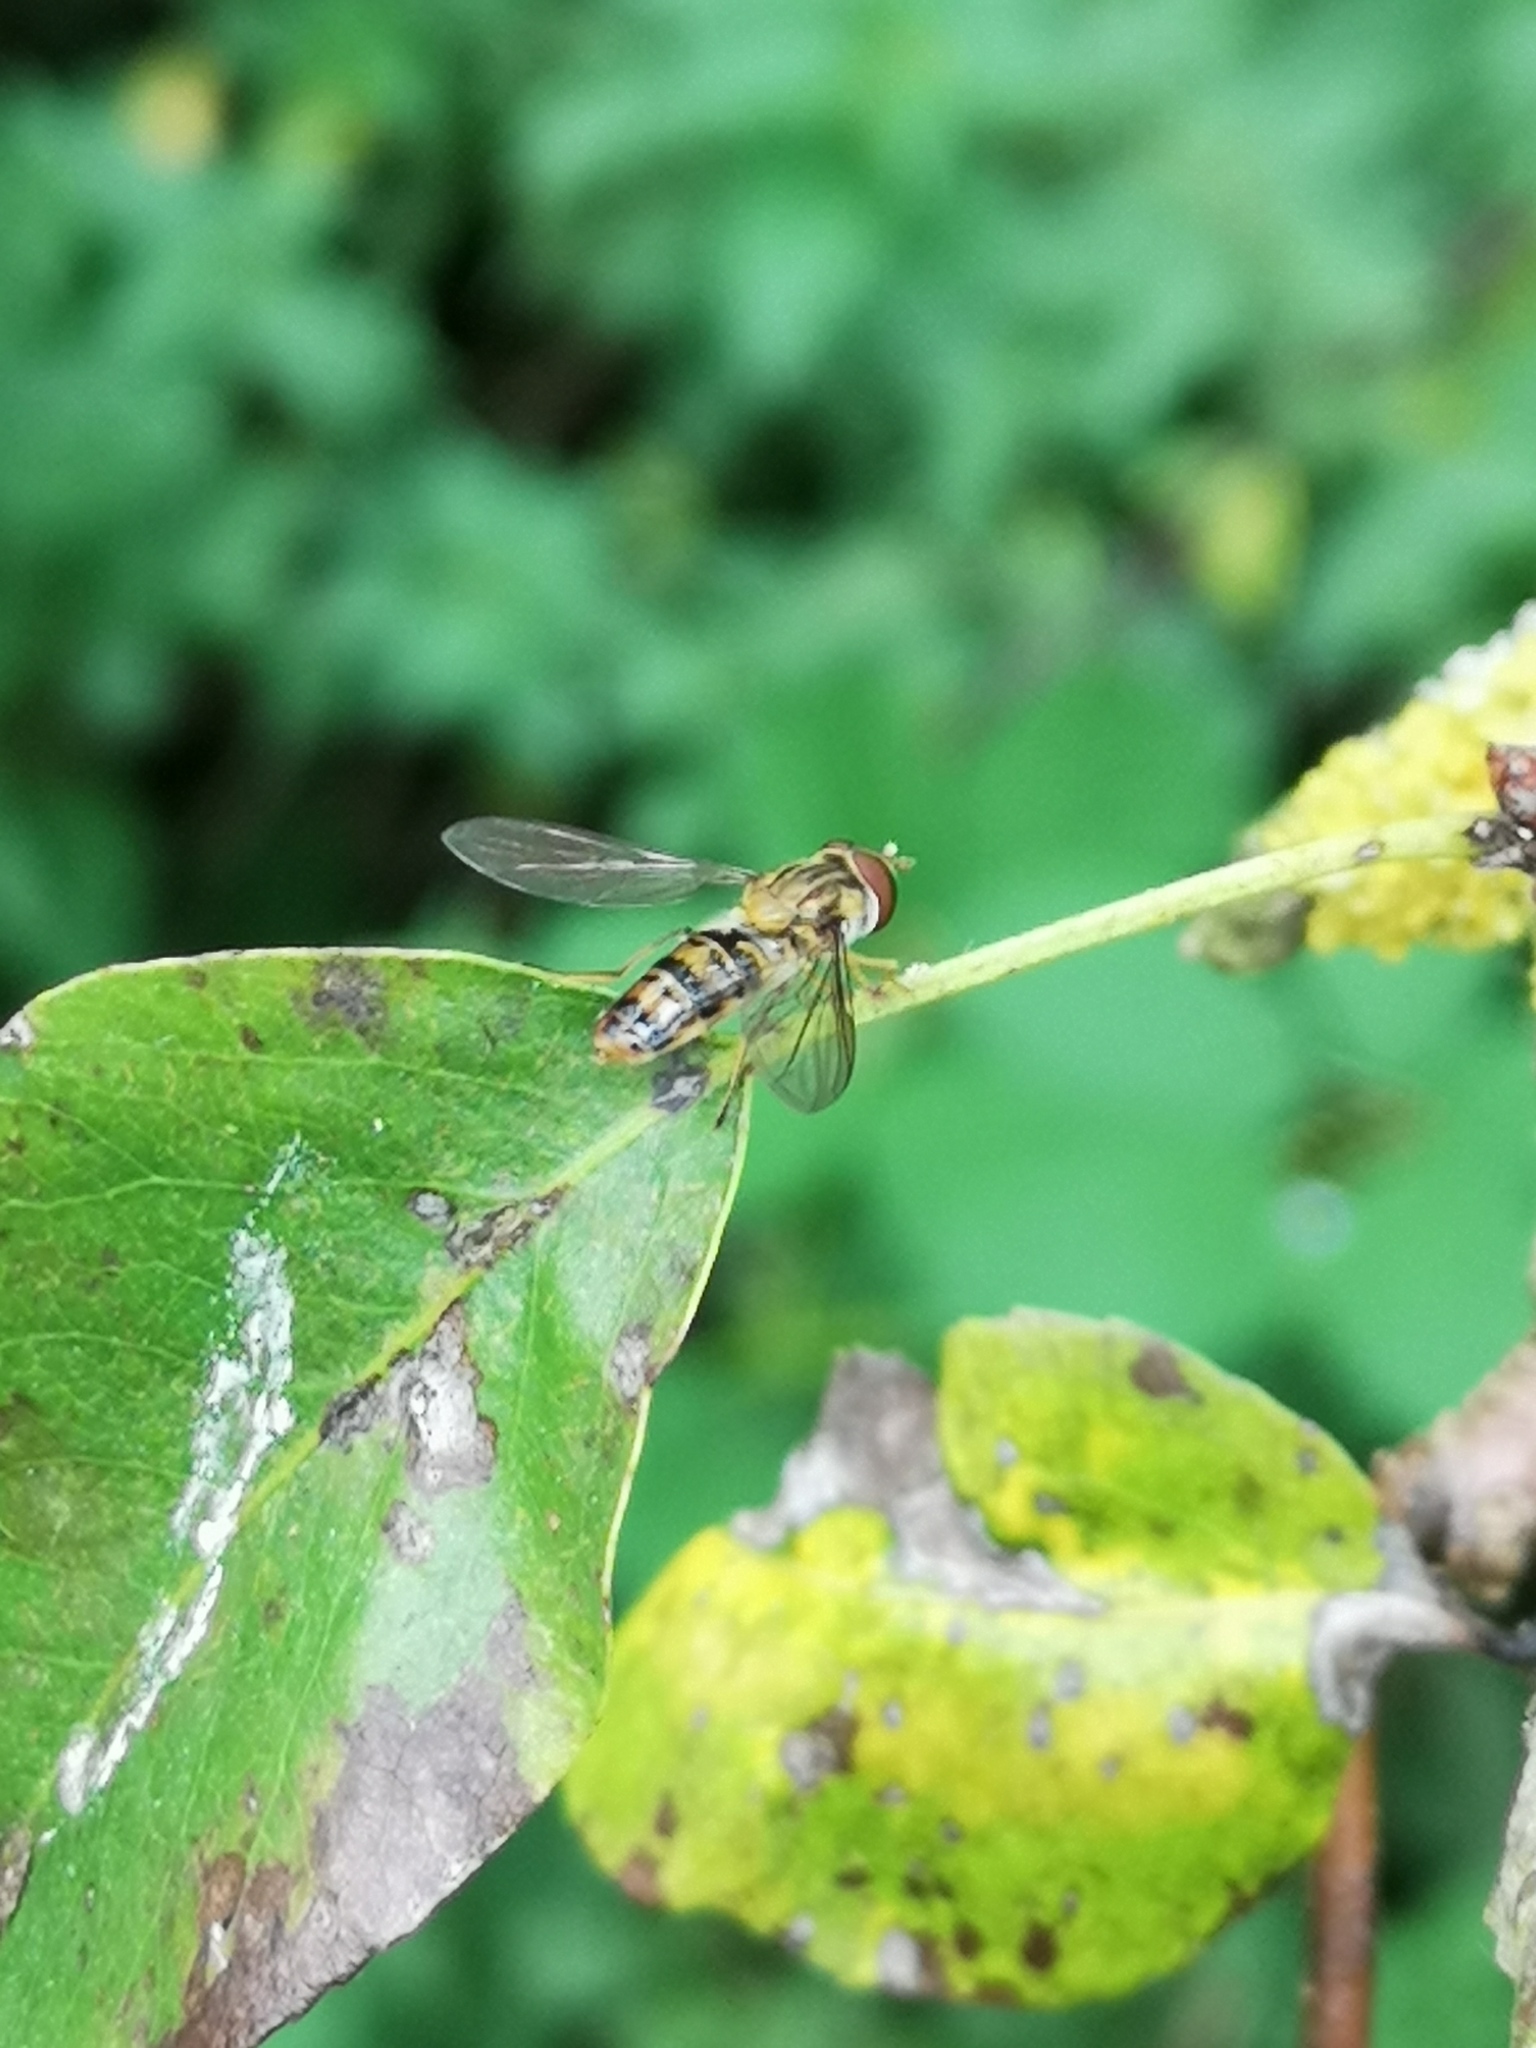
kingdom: Animalia
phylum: Arthropoda
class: Insecta
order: Diptera
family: Syrphidae
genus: Episyrphus
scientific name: Episyrphus balteatus
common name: Marmalade hoverfly
